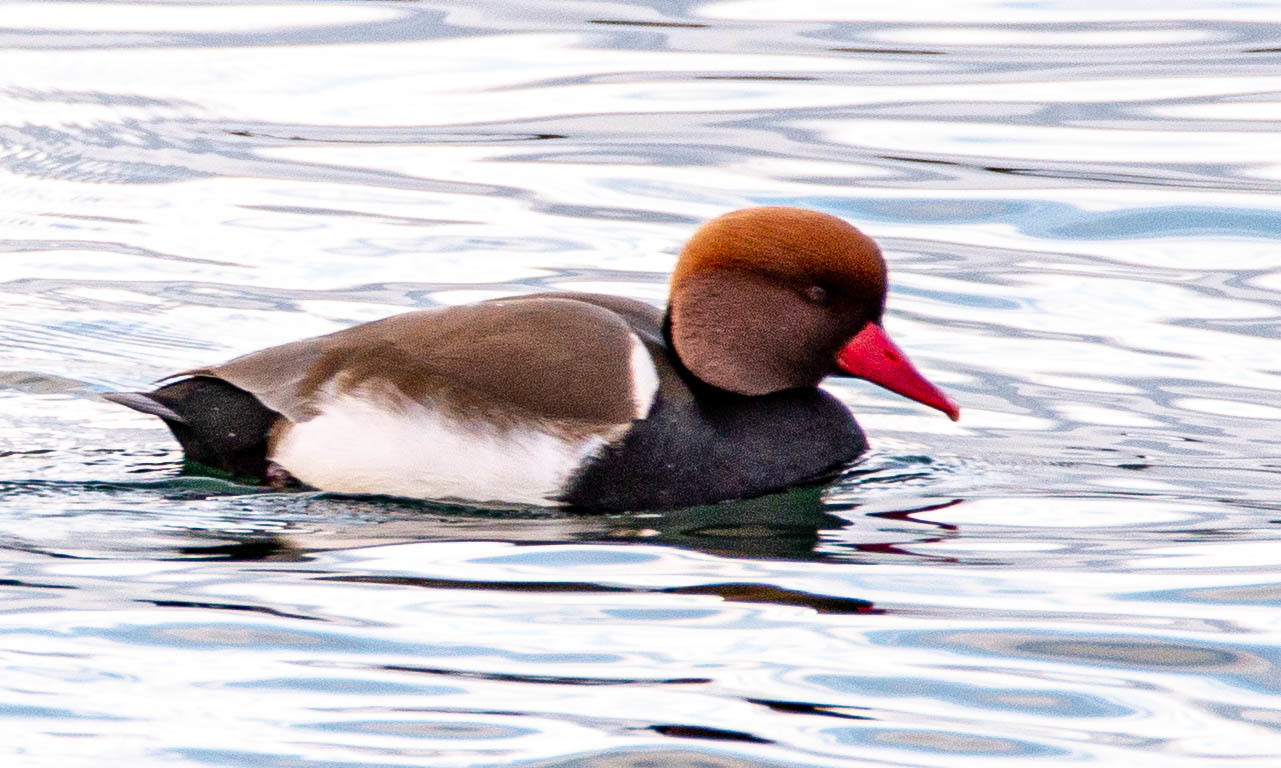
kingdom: Animalia
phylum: Chordata
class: Aves
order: Anseriformes
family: Anatidae
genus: Netta
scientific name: Netta rufina
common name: Red-crested pochard
